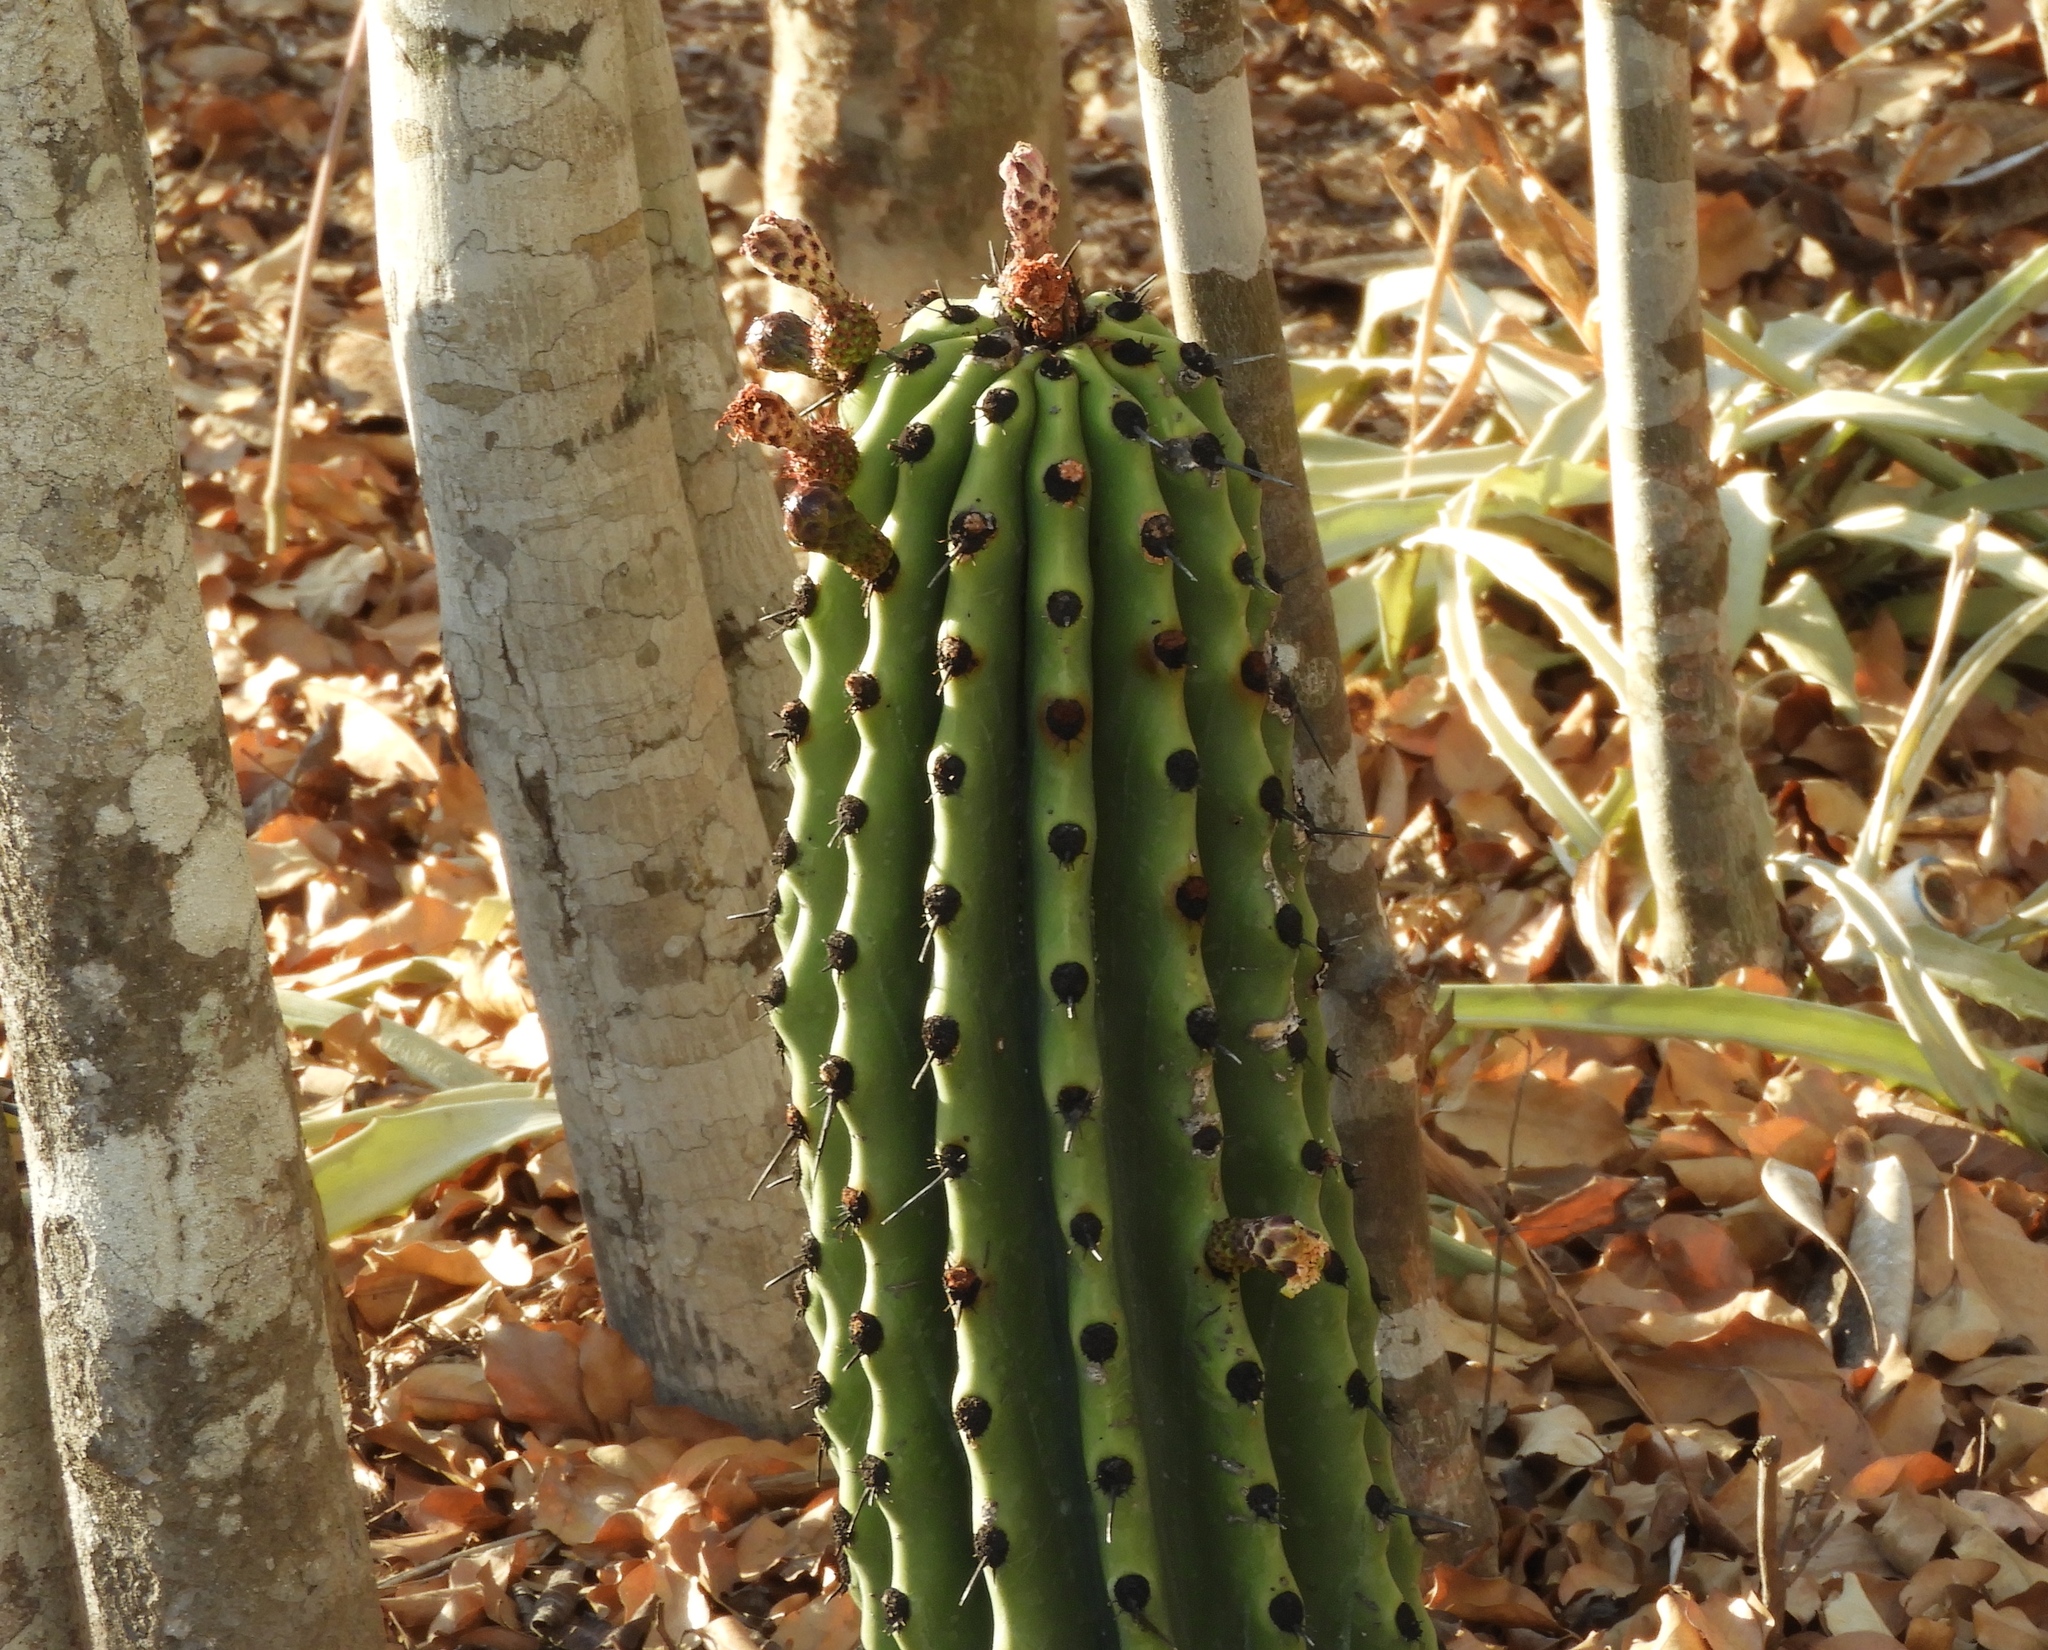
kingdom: Plantae
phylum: Tracheophyta
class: Magnoliopsida
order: Caryophyllales
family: Cactaceae
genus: Stenocereus
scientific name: Stenocereus martinezii
